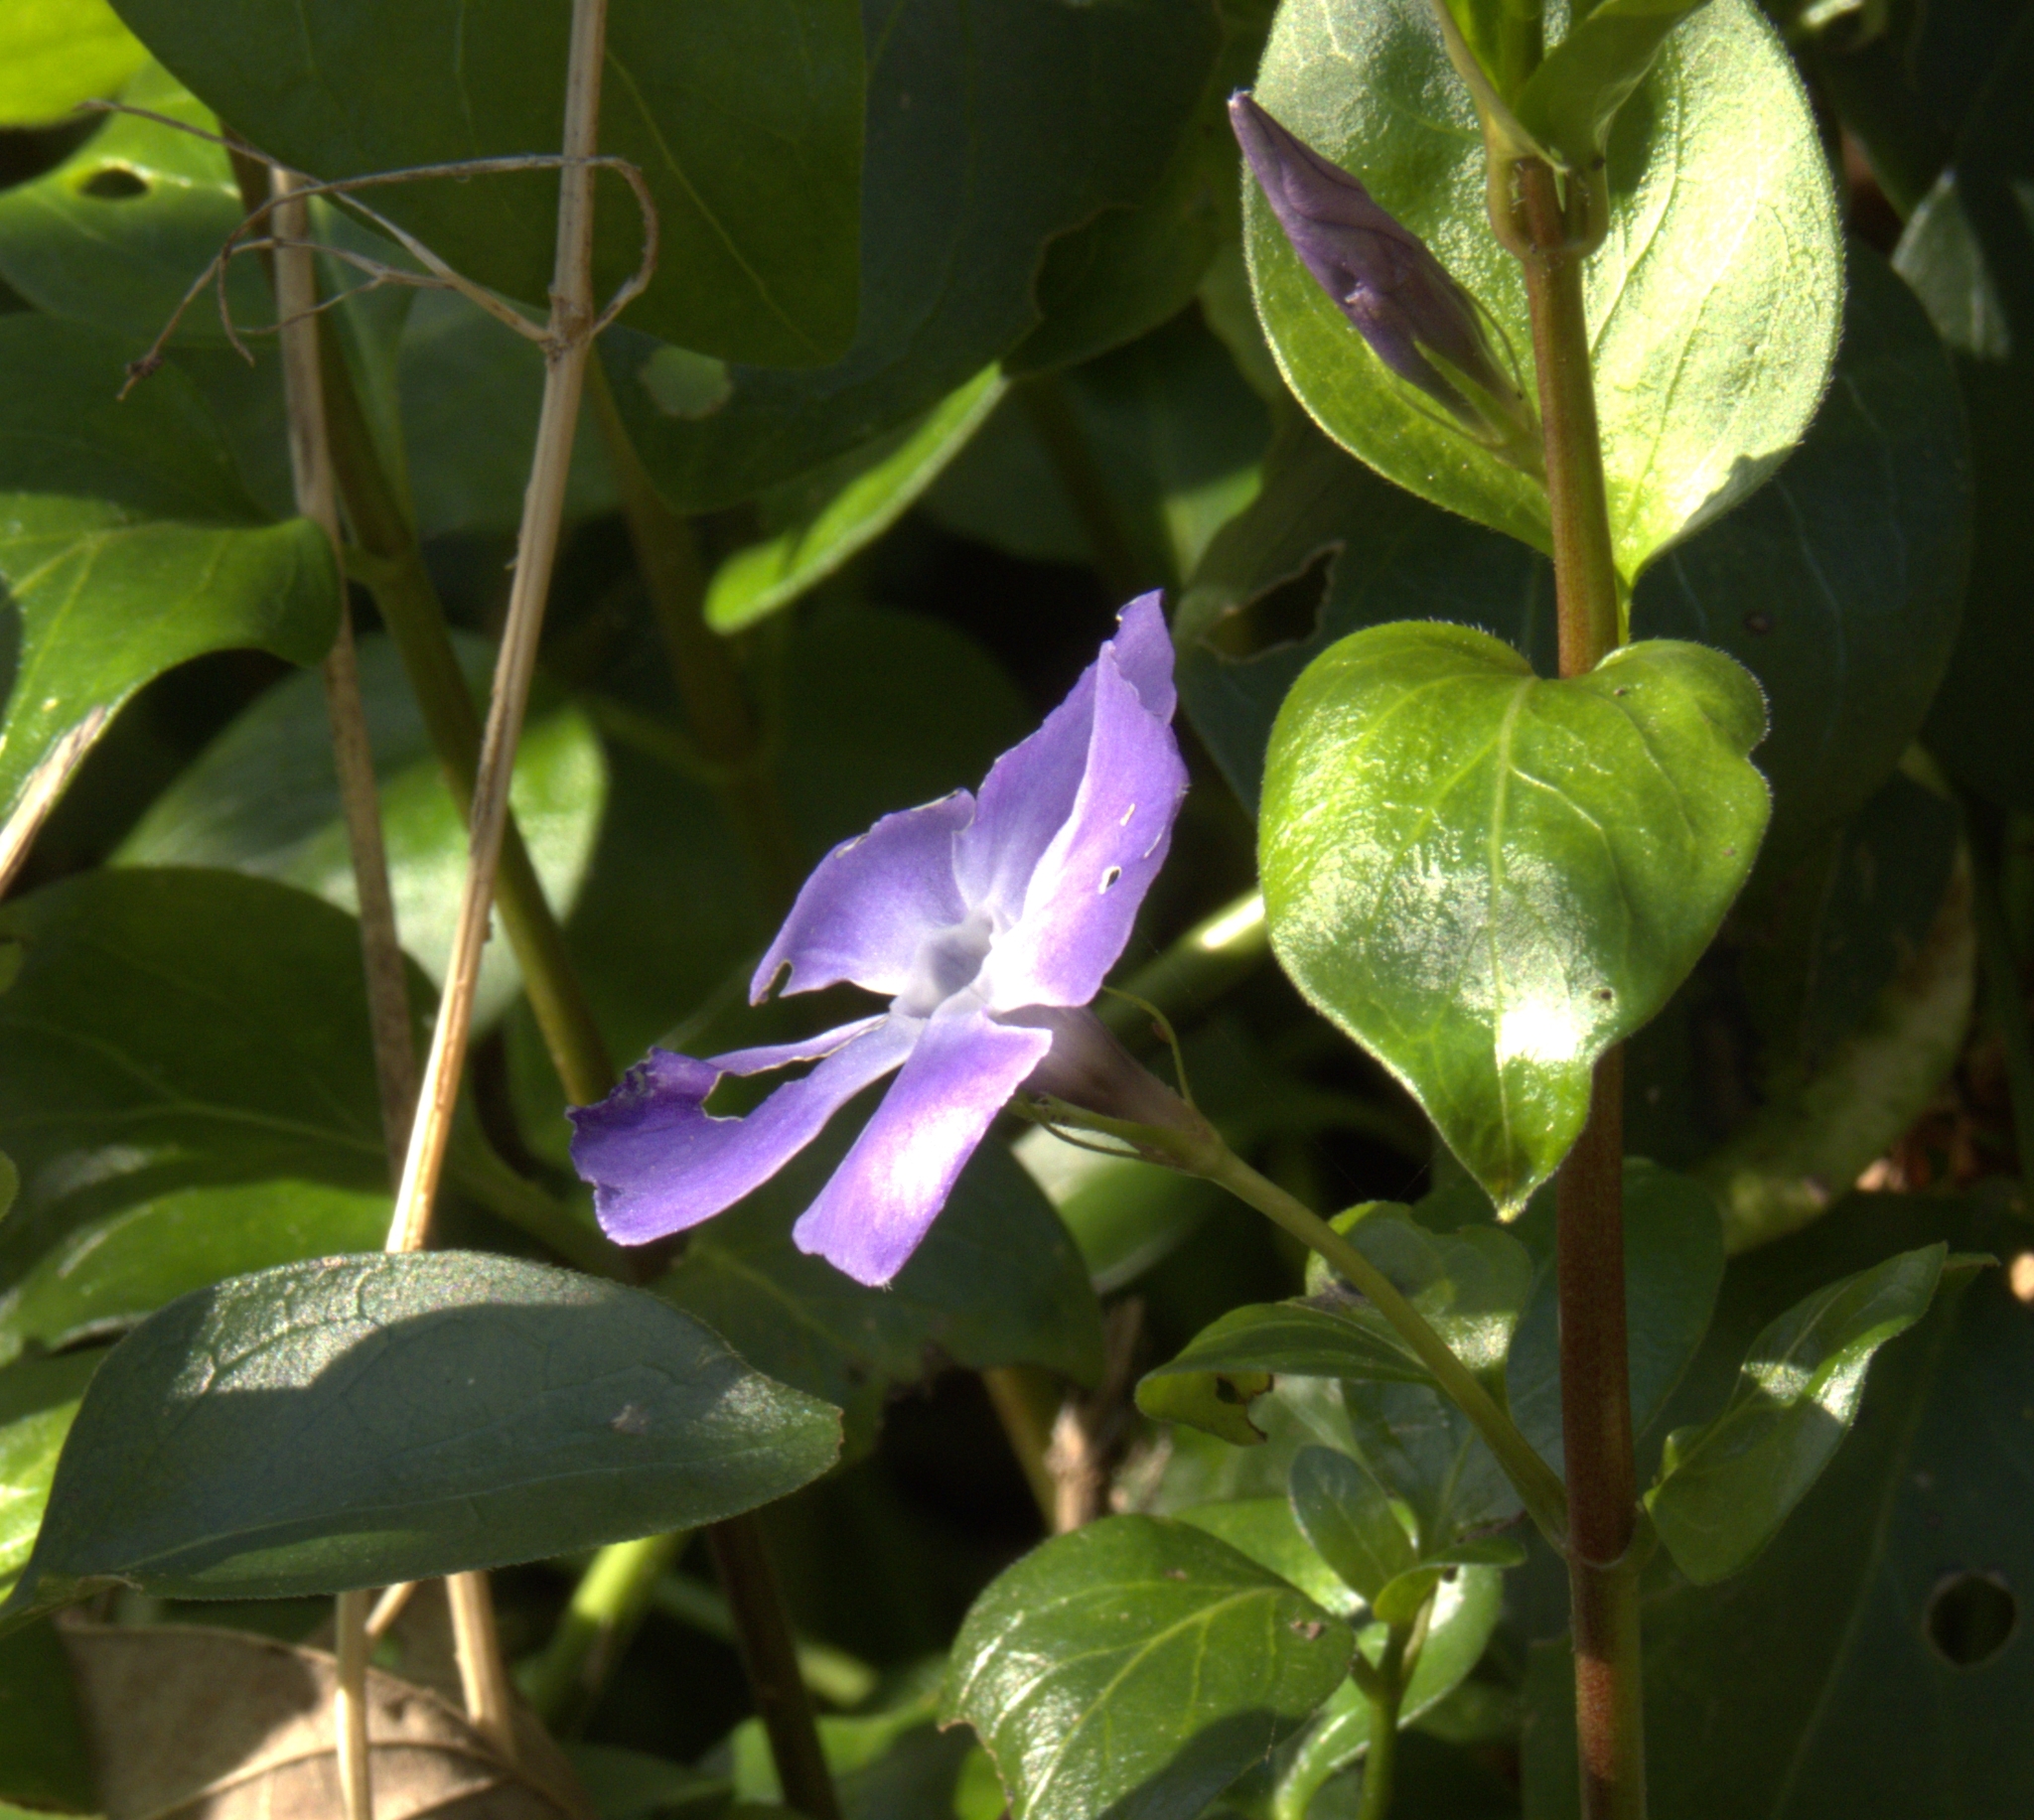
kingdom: Plantae
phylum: Tracheophyta
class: Magnoliopsida
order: Gentianales
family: Apocynaceae
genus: Vinca
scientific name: Vinca minor
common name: Lesser periwinkle
